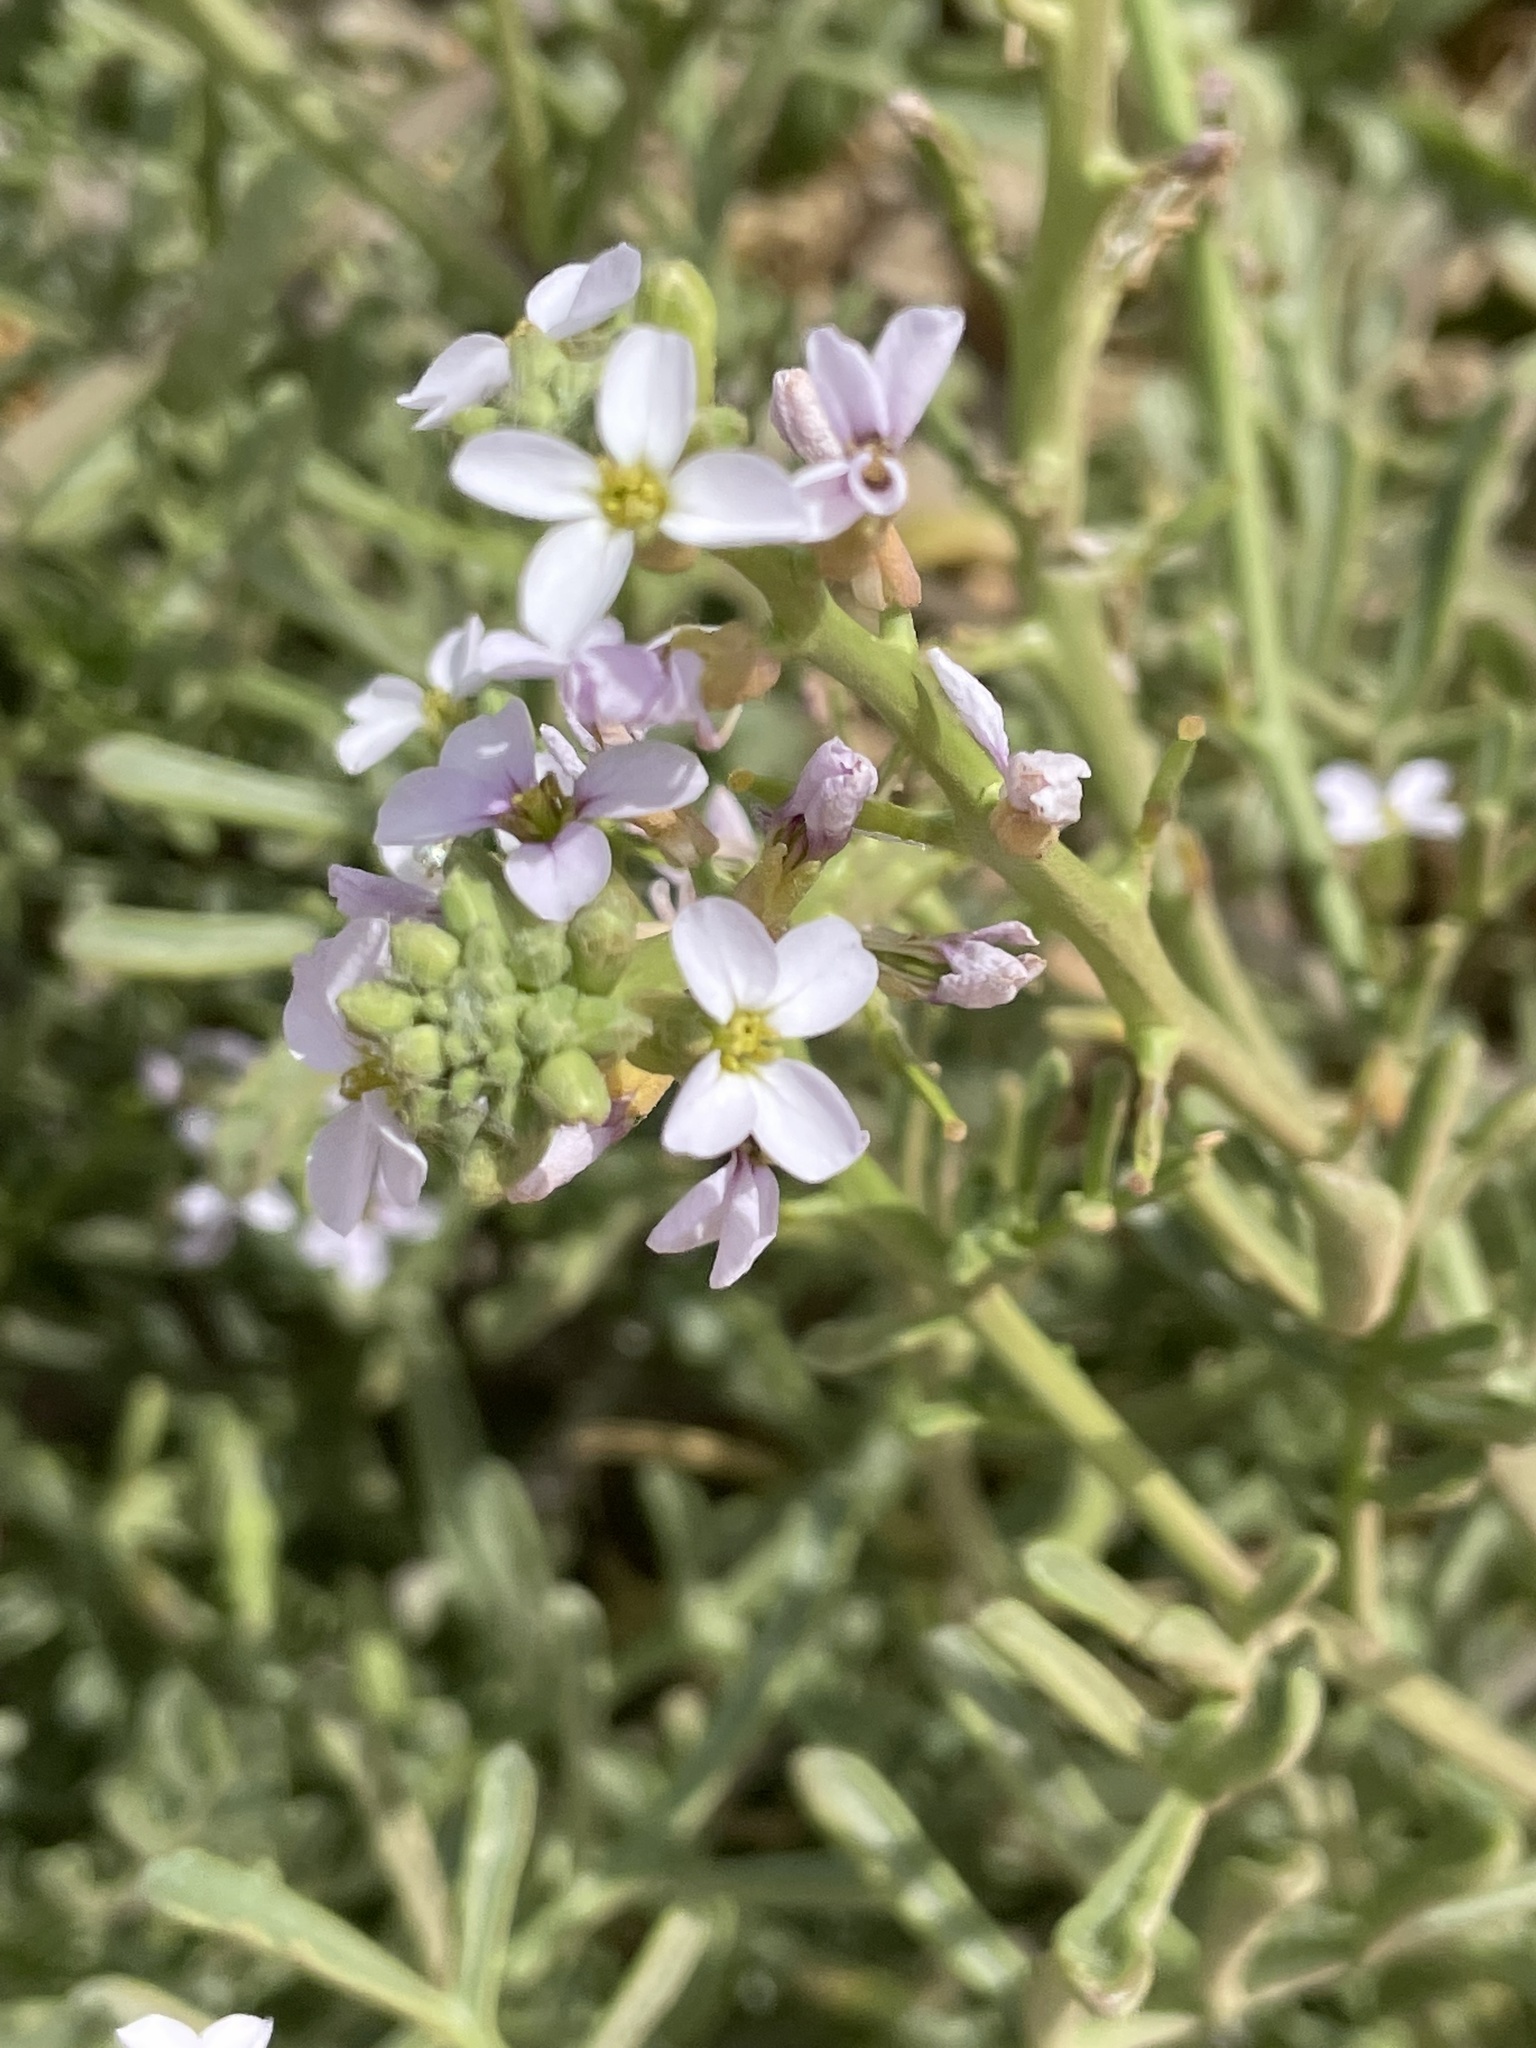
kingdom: Plantae
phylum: Tracheophyta
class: Magnoliopsida
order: Brassicales
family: Brassicaceae
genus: Cakile
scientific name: Cakile maritima
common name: Sea rocket
